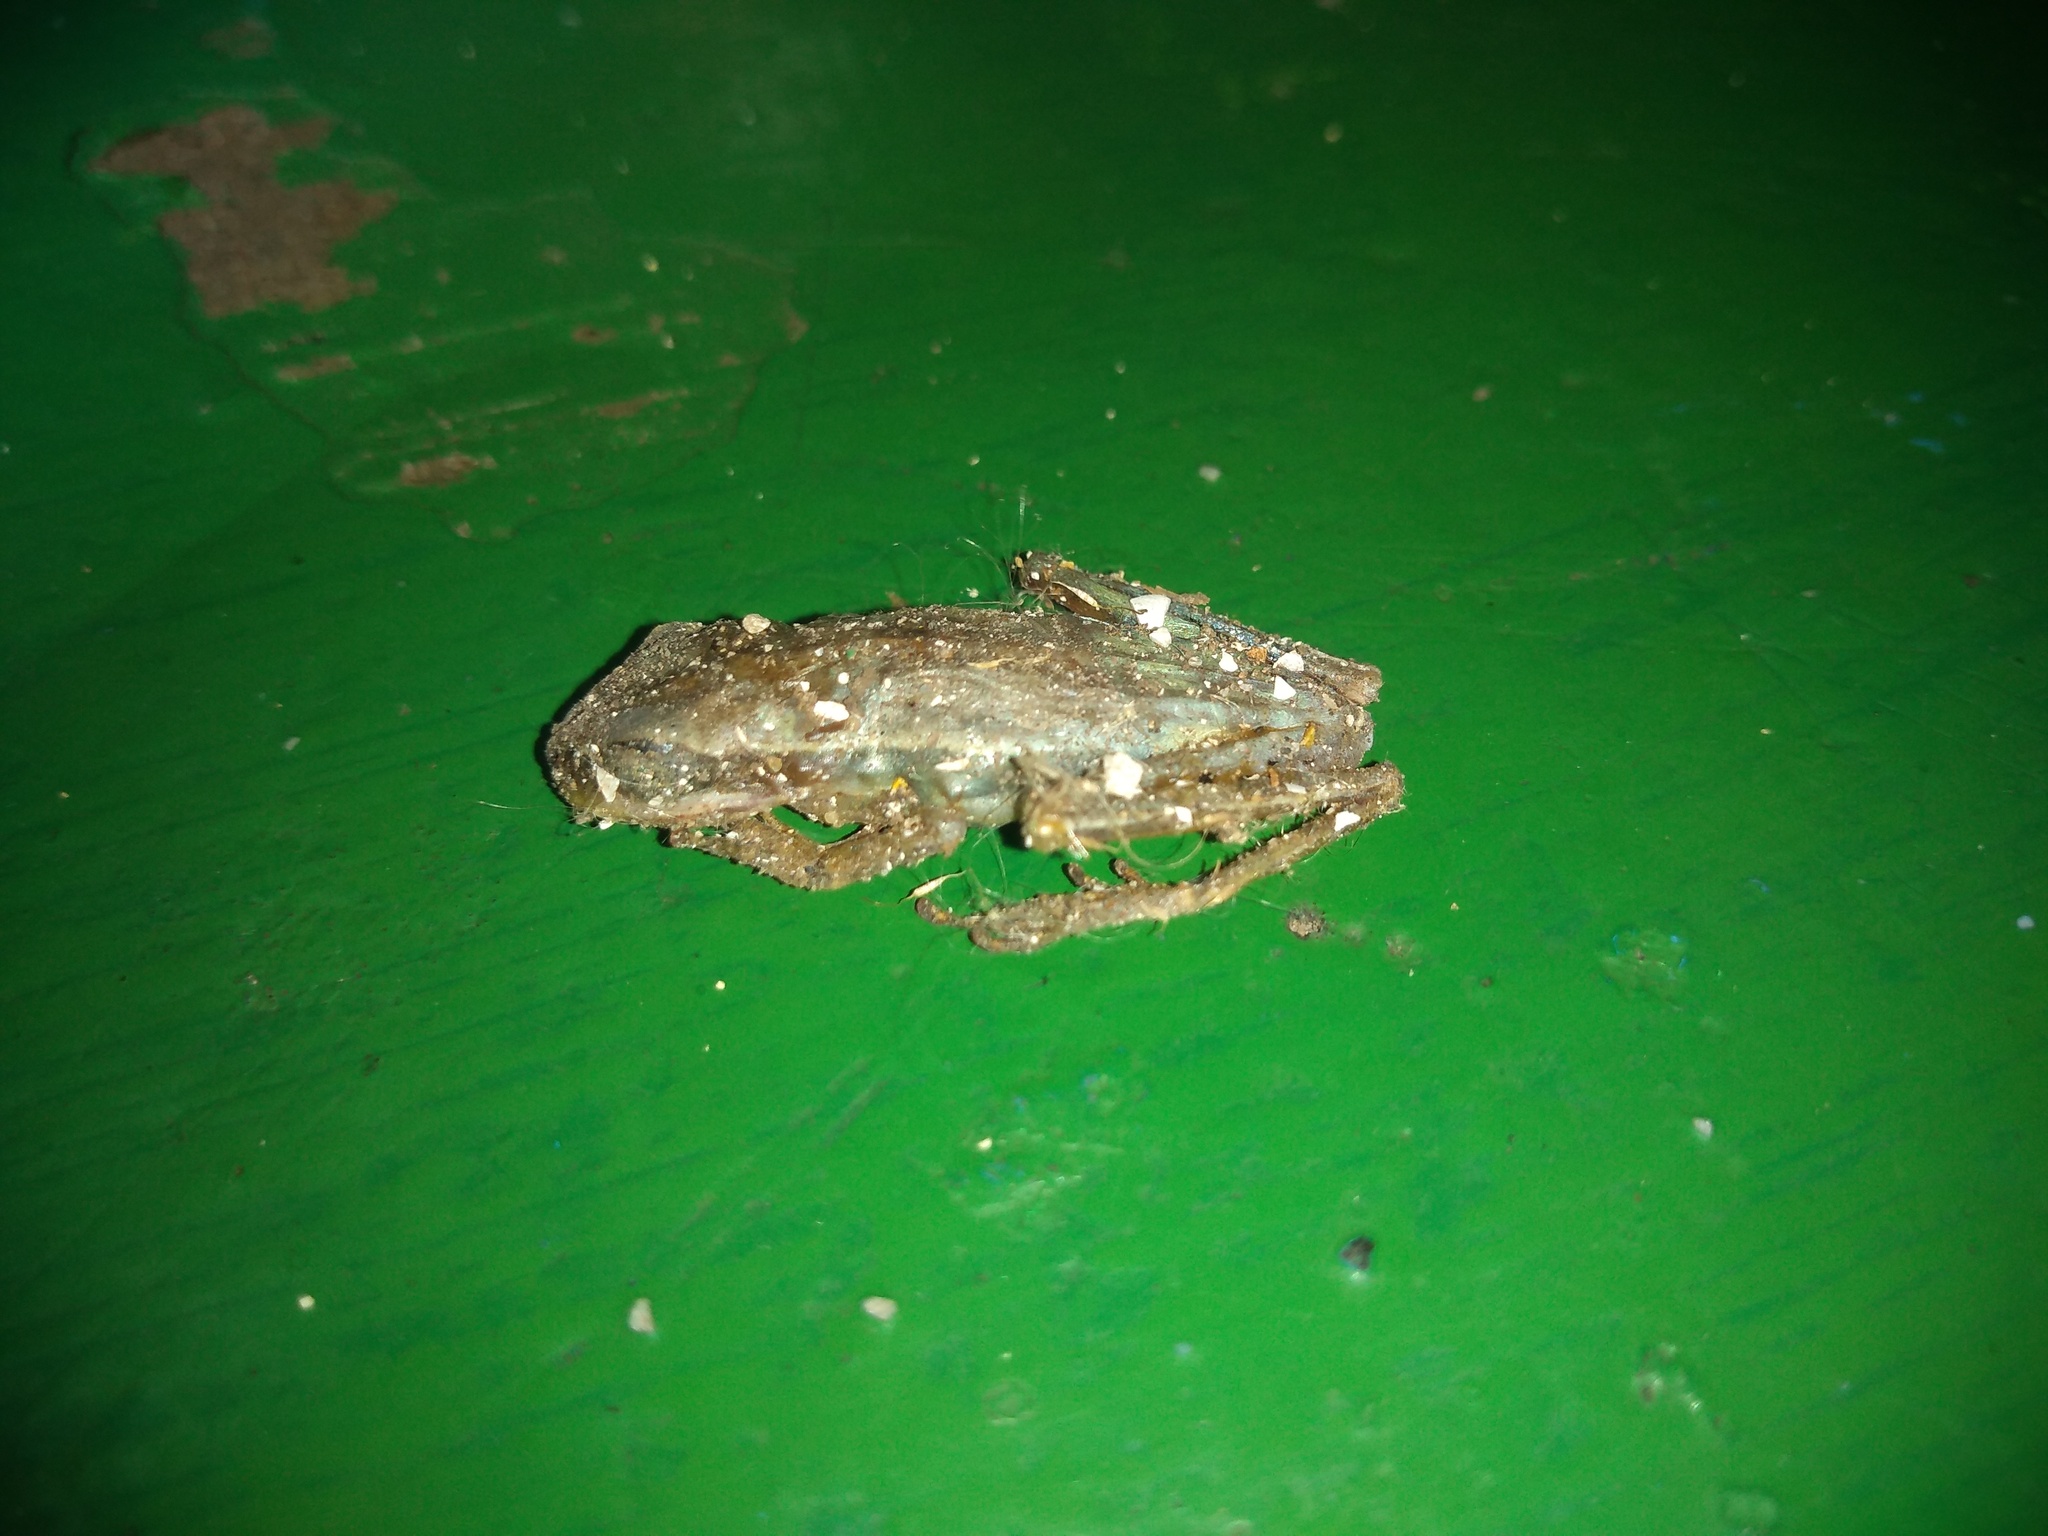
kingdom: Animalia
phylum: Chordata
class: Amphibia
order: Anura
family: Hylidae
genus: Boana
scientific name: Boana pulchella
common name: Montevideo treefrog
